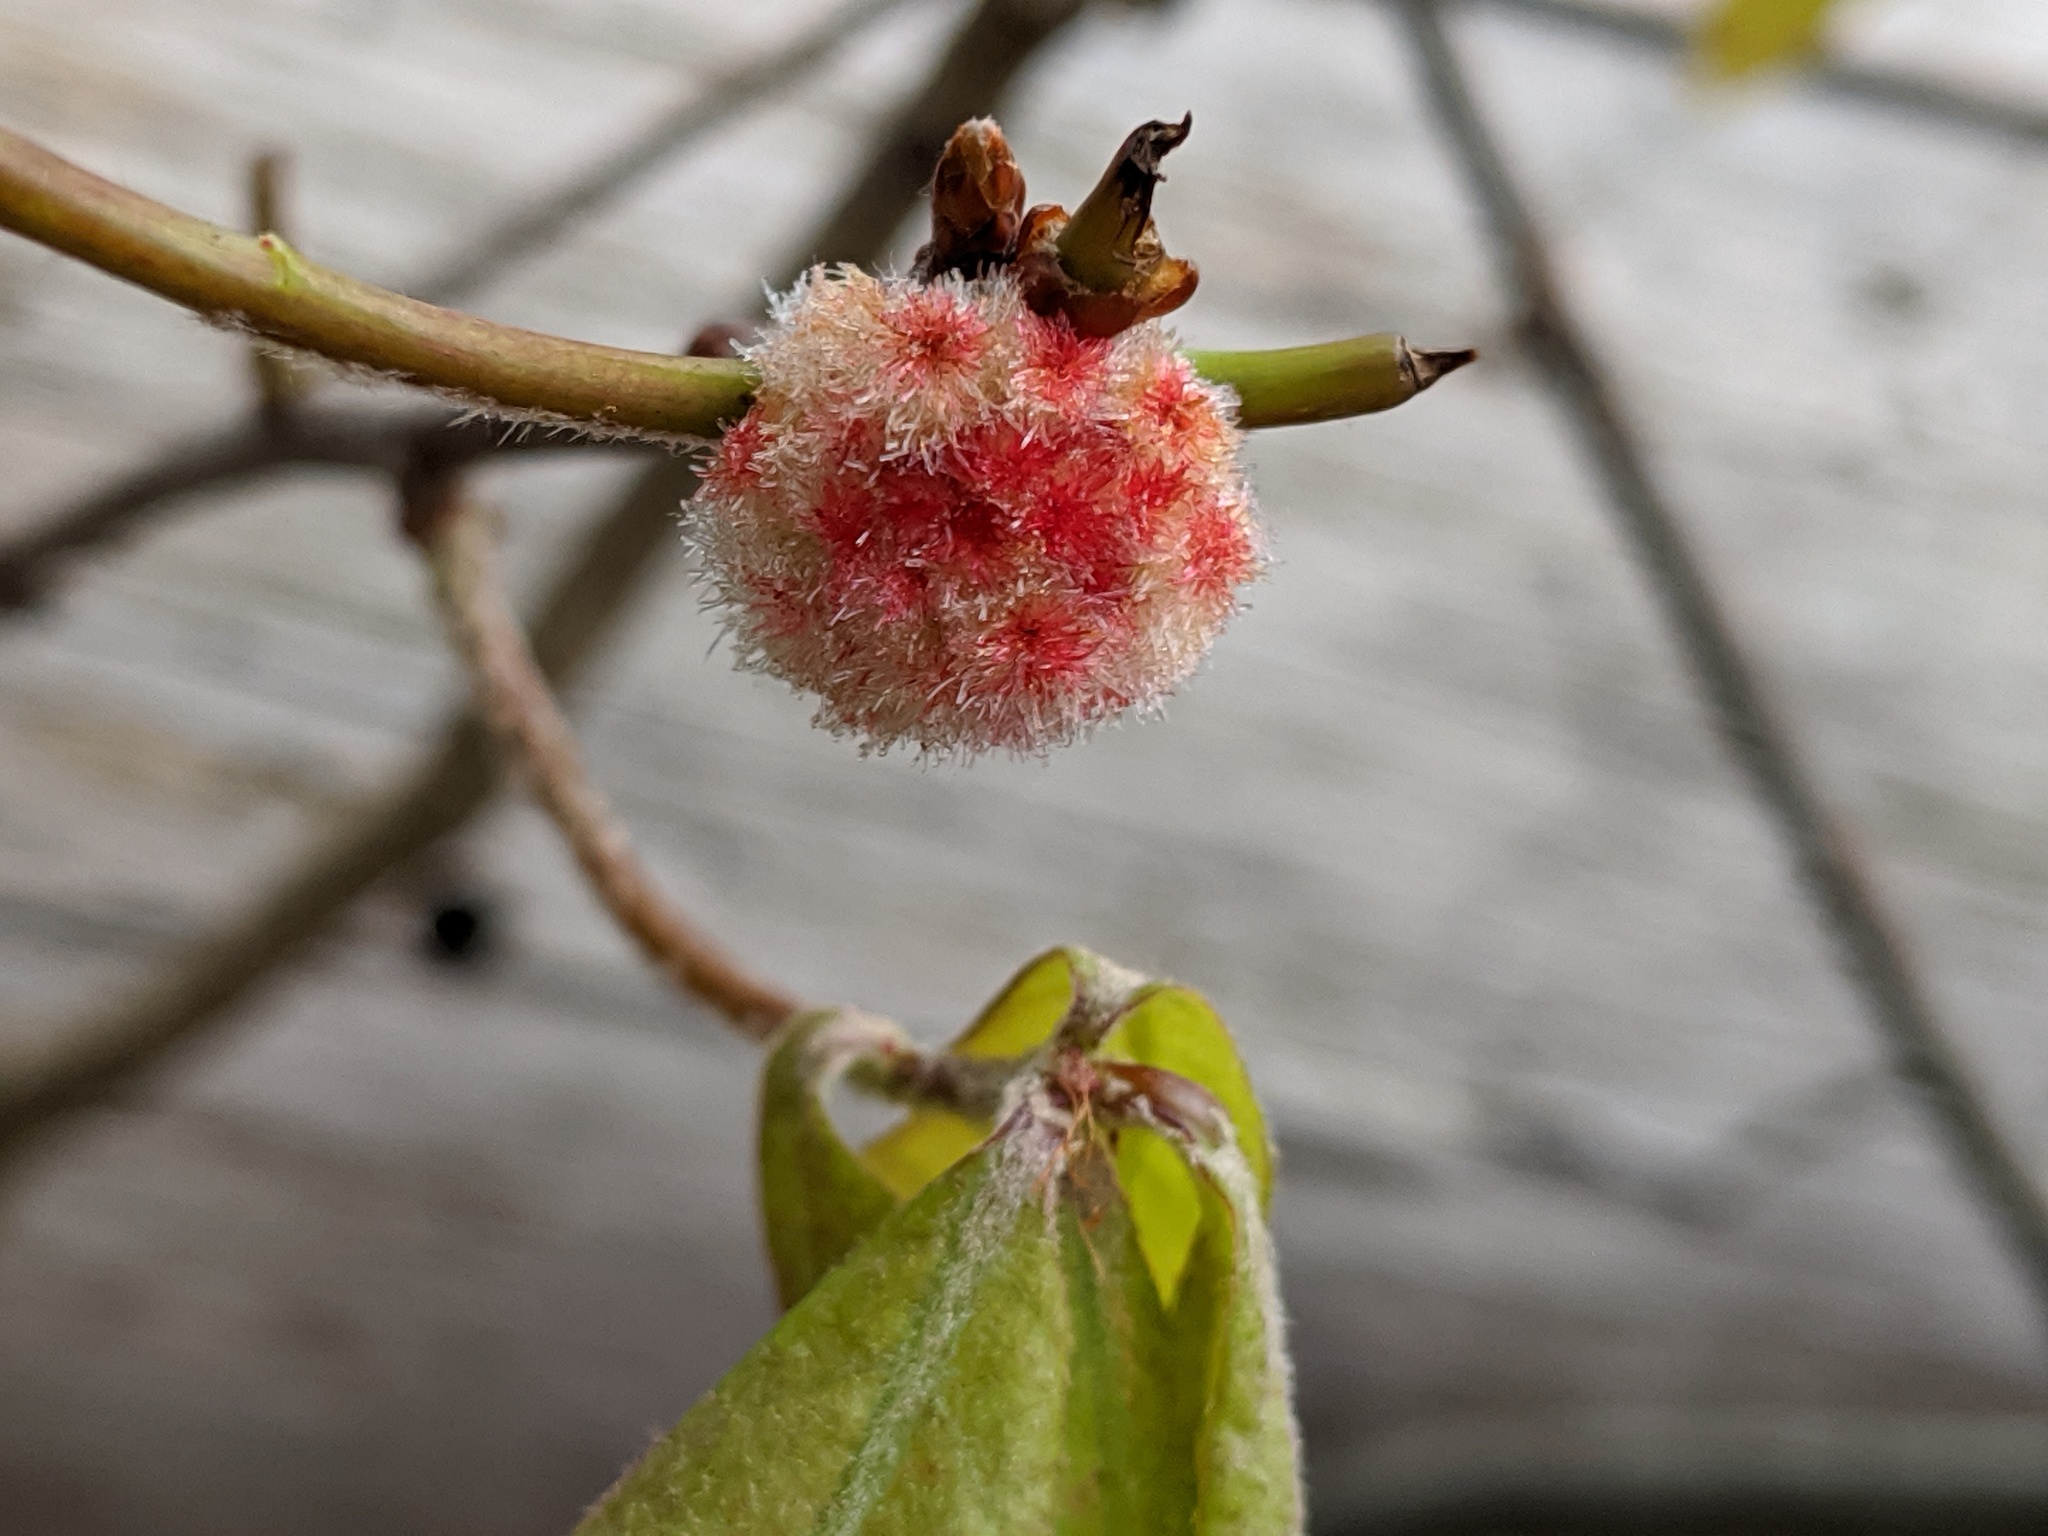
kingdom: Animalia
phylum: Arthropoda
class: Insecta
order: Hymenoptera
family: Cynipidae
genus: Callirhytis
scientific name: Callirhytis
